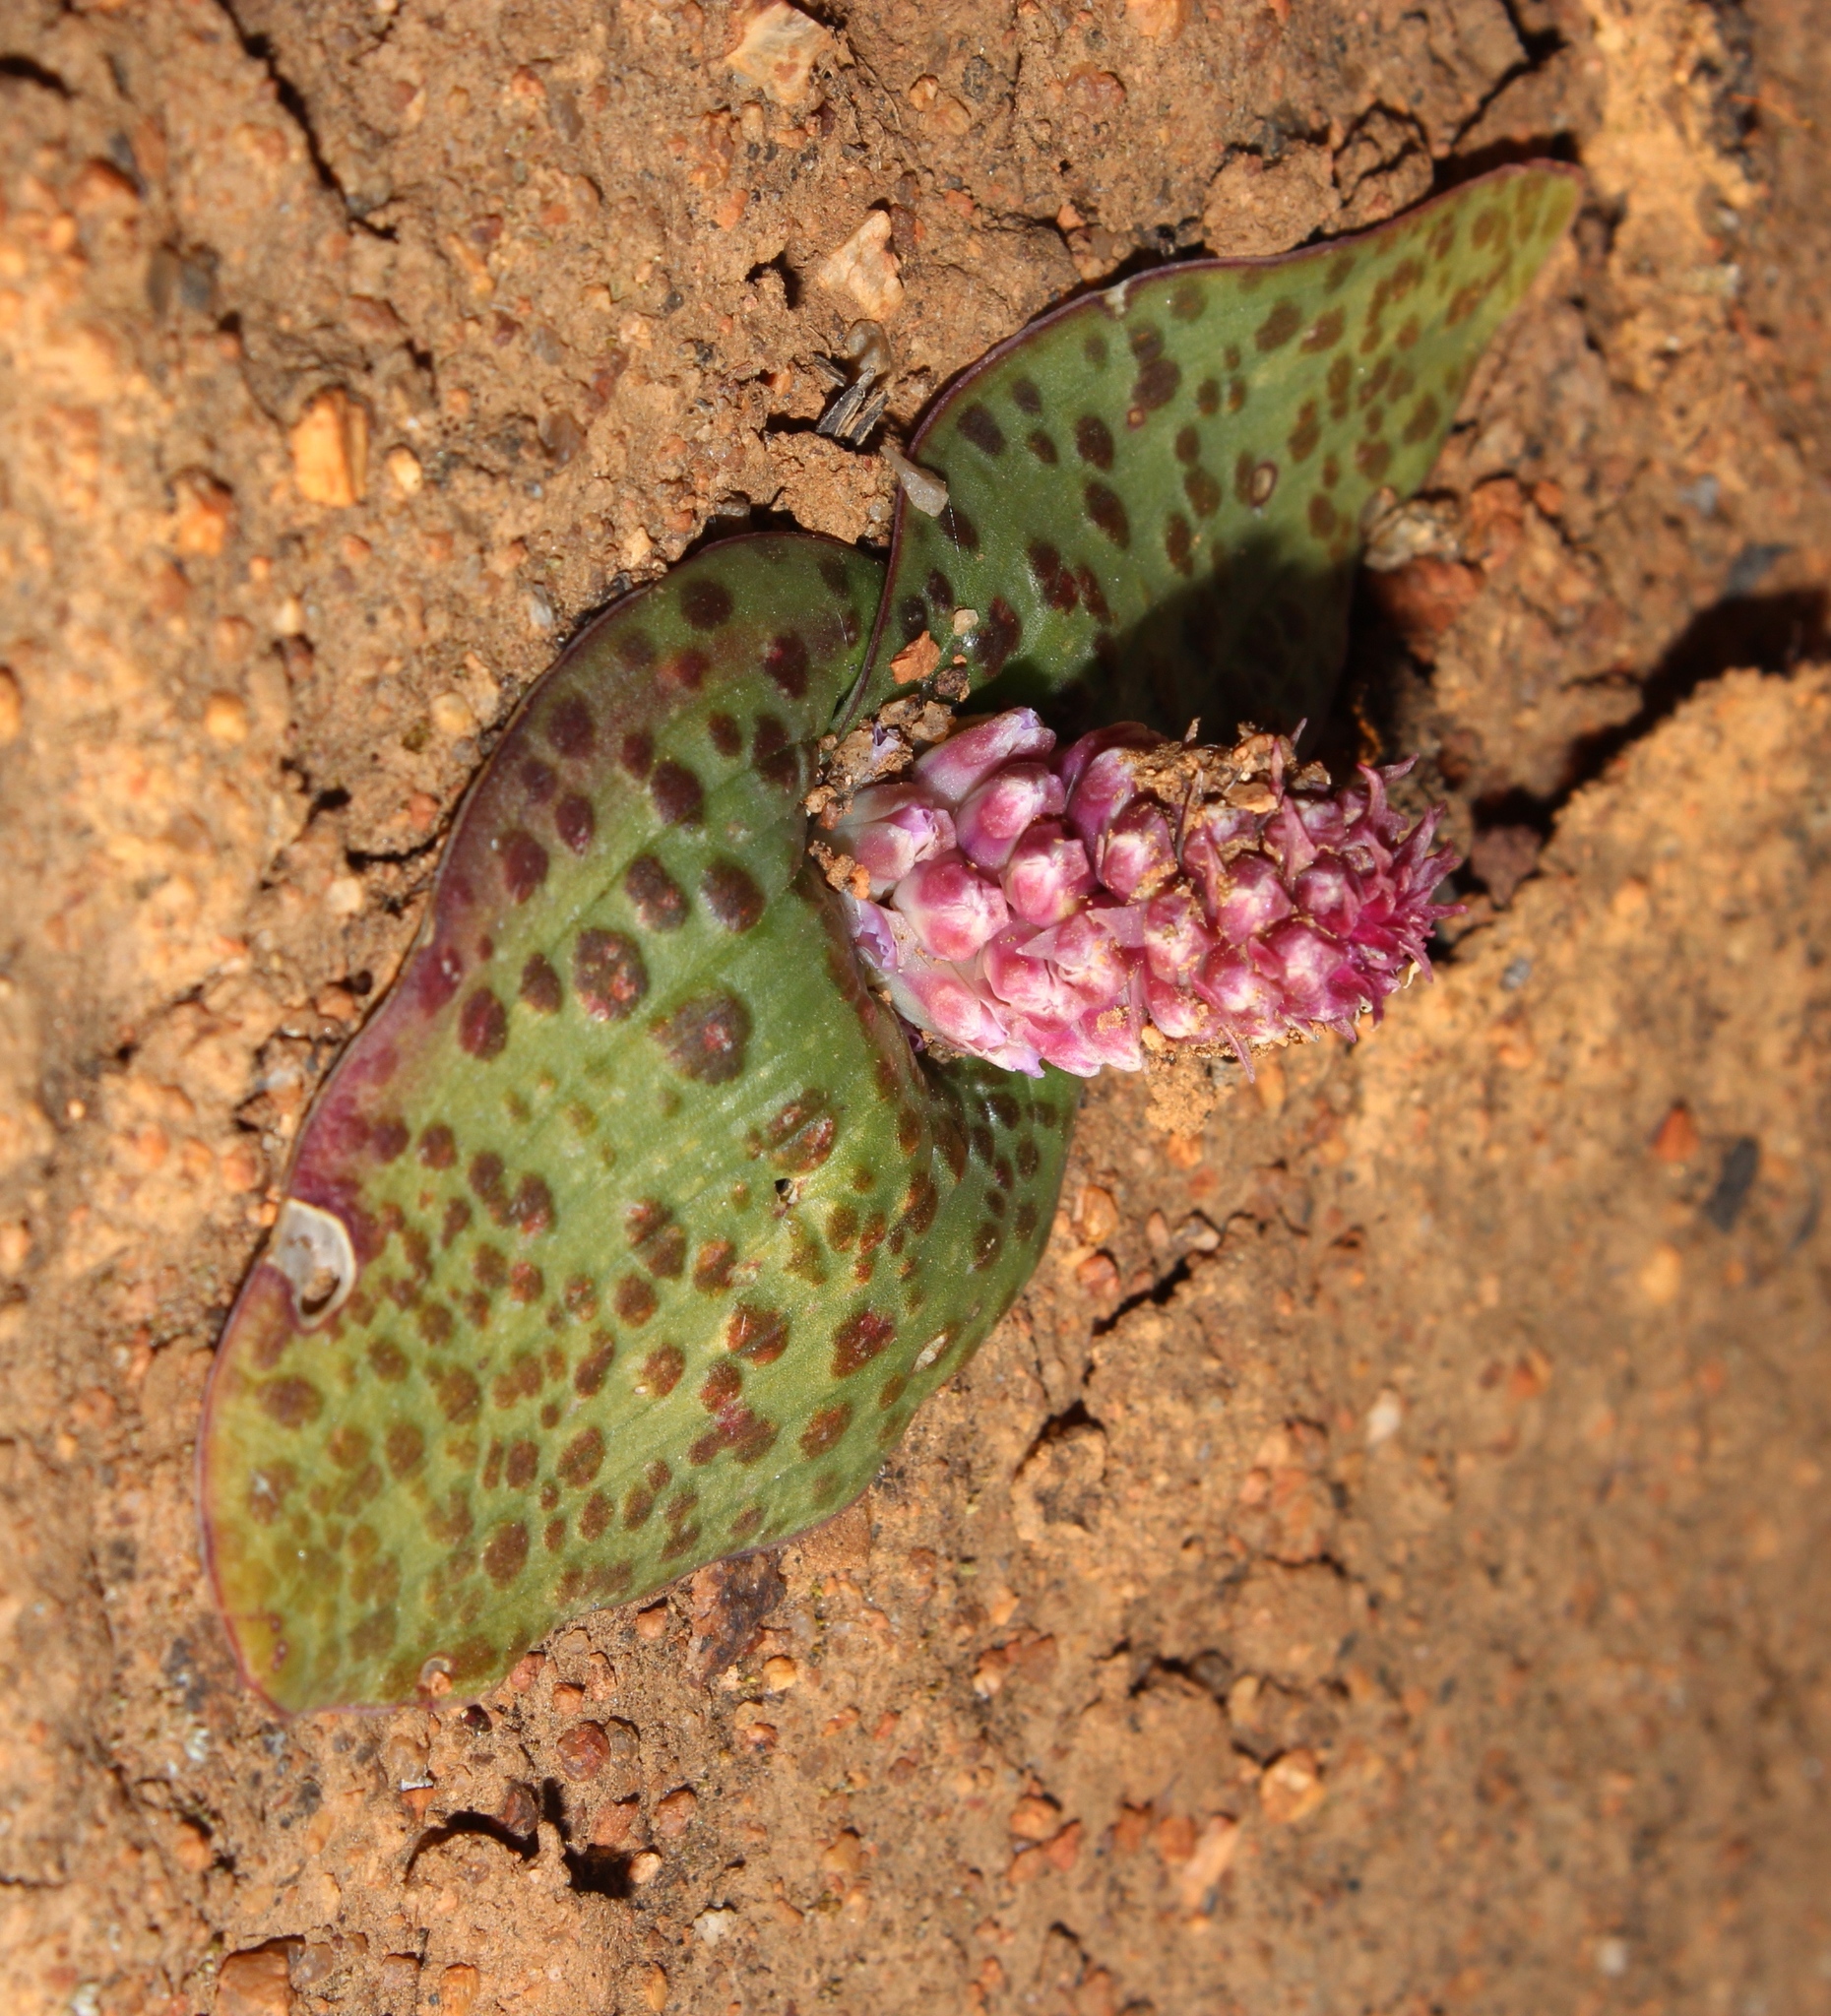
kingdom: Plantae
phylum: Tracheophyta
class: Liliopsida
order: Asparagales
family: Asparagaceae
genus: Lachenalia
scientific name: Lachenalia carnosa
